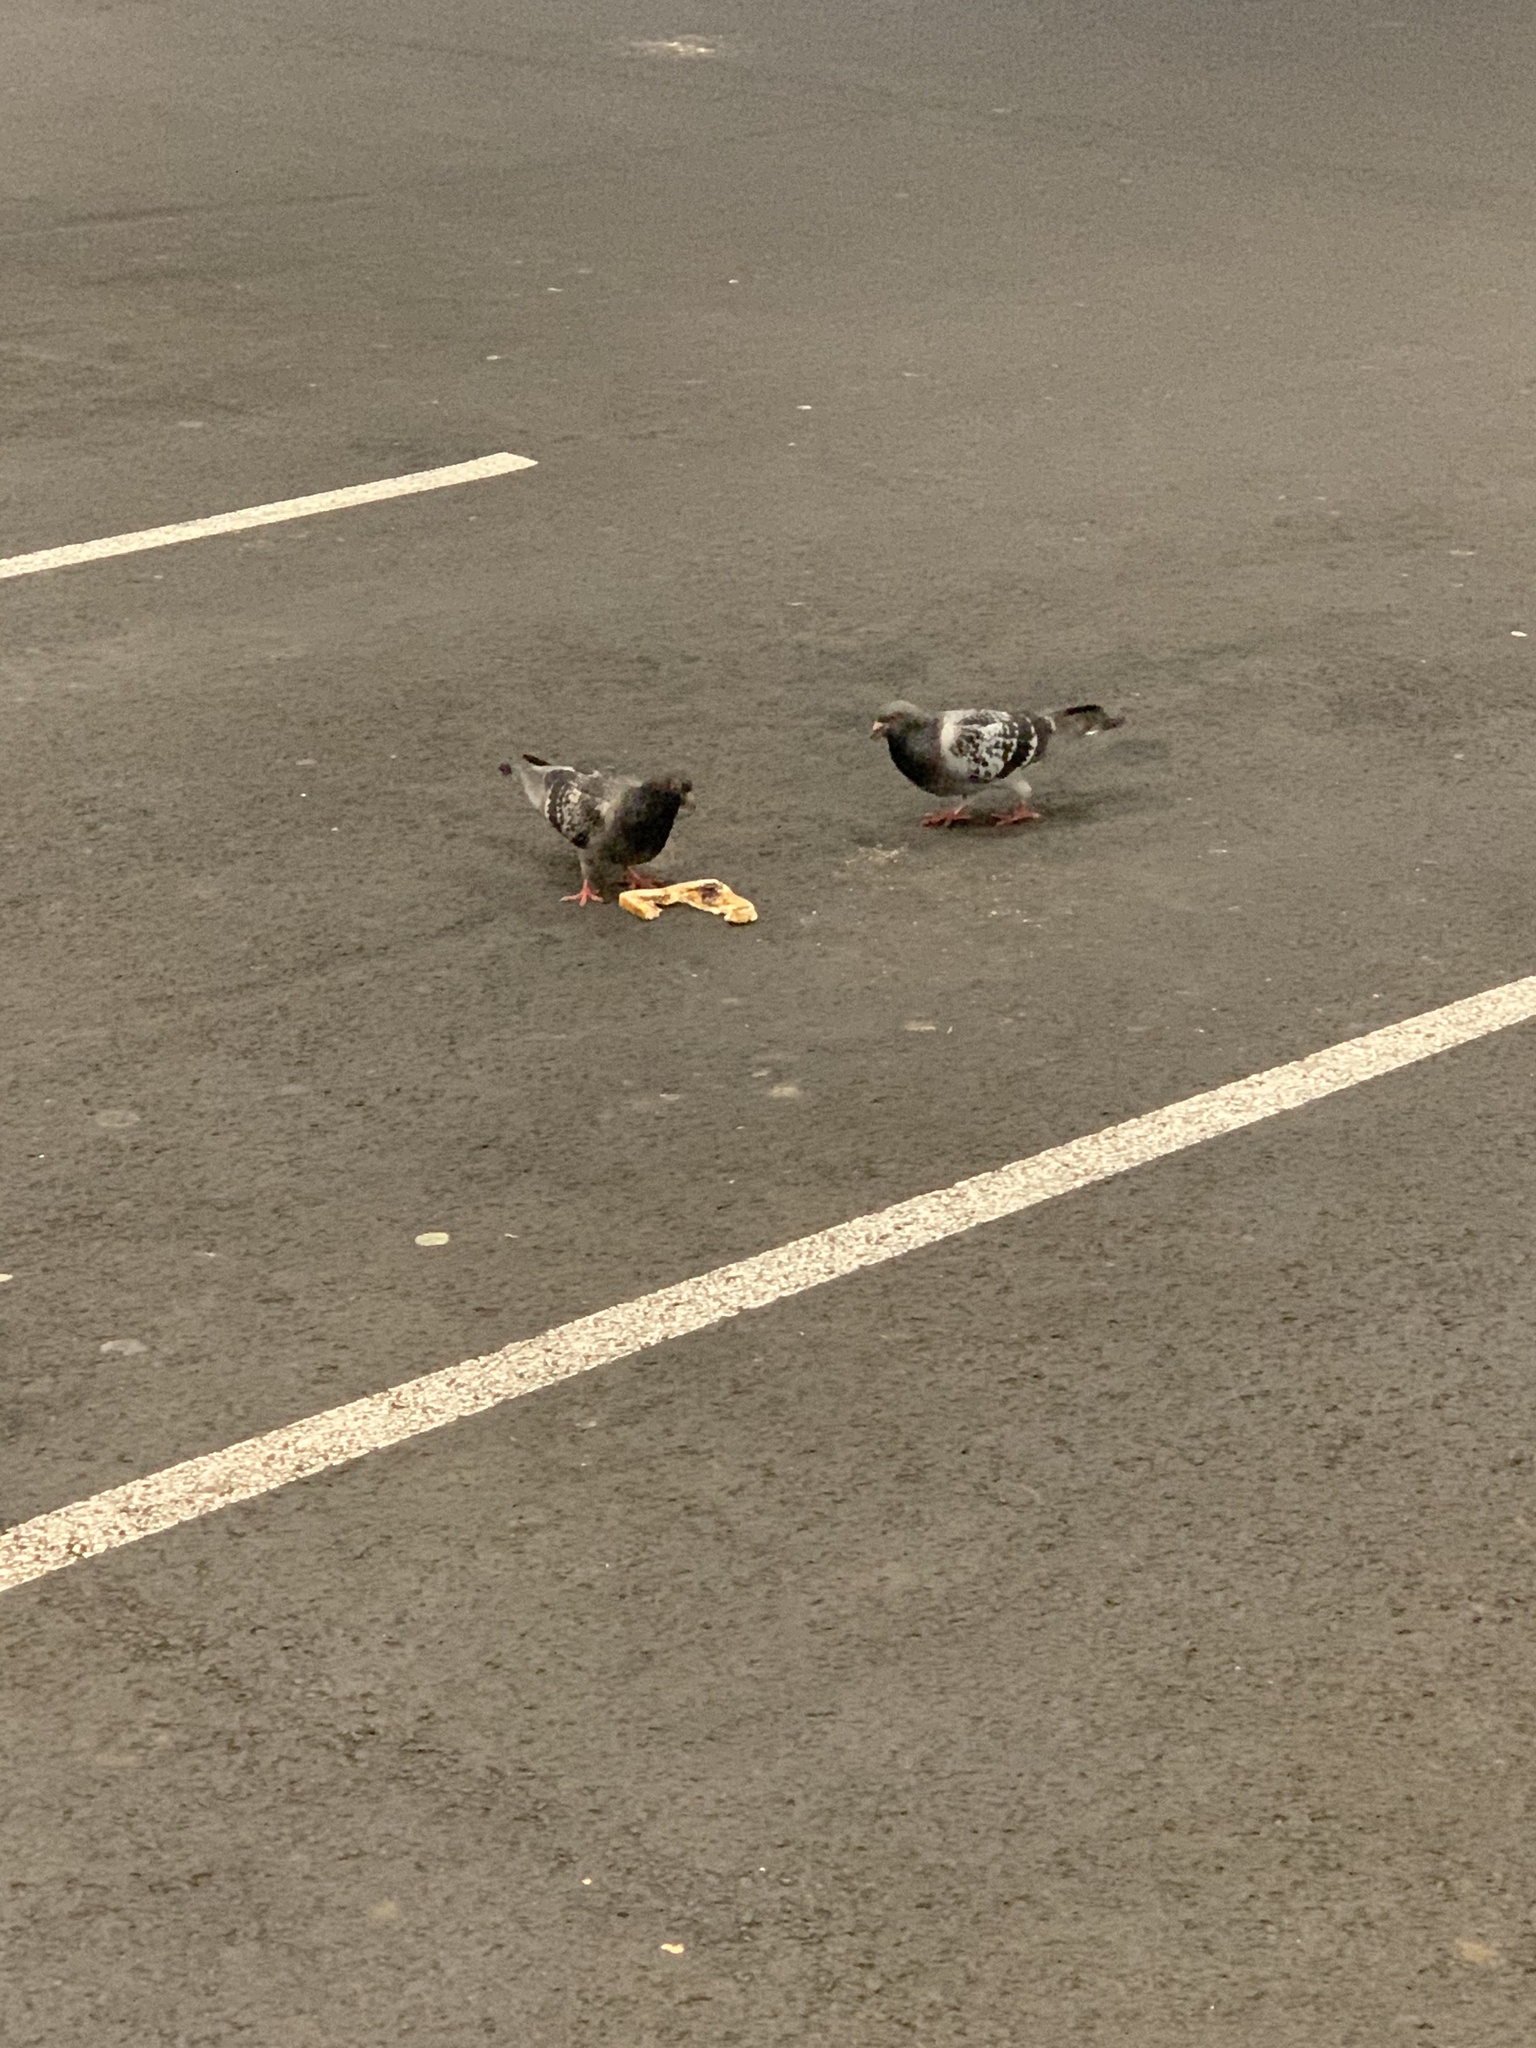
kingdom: Animalia
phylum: Chordata
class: Aves
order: Columbiformes
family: Columbidae
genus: Columba
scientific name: Columba livia
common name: Rock pigeon
